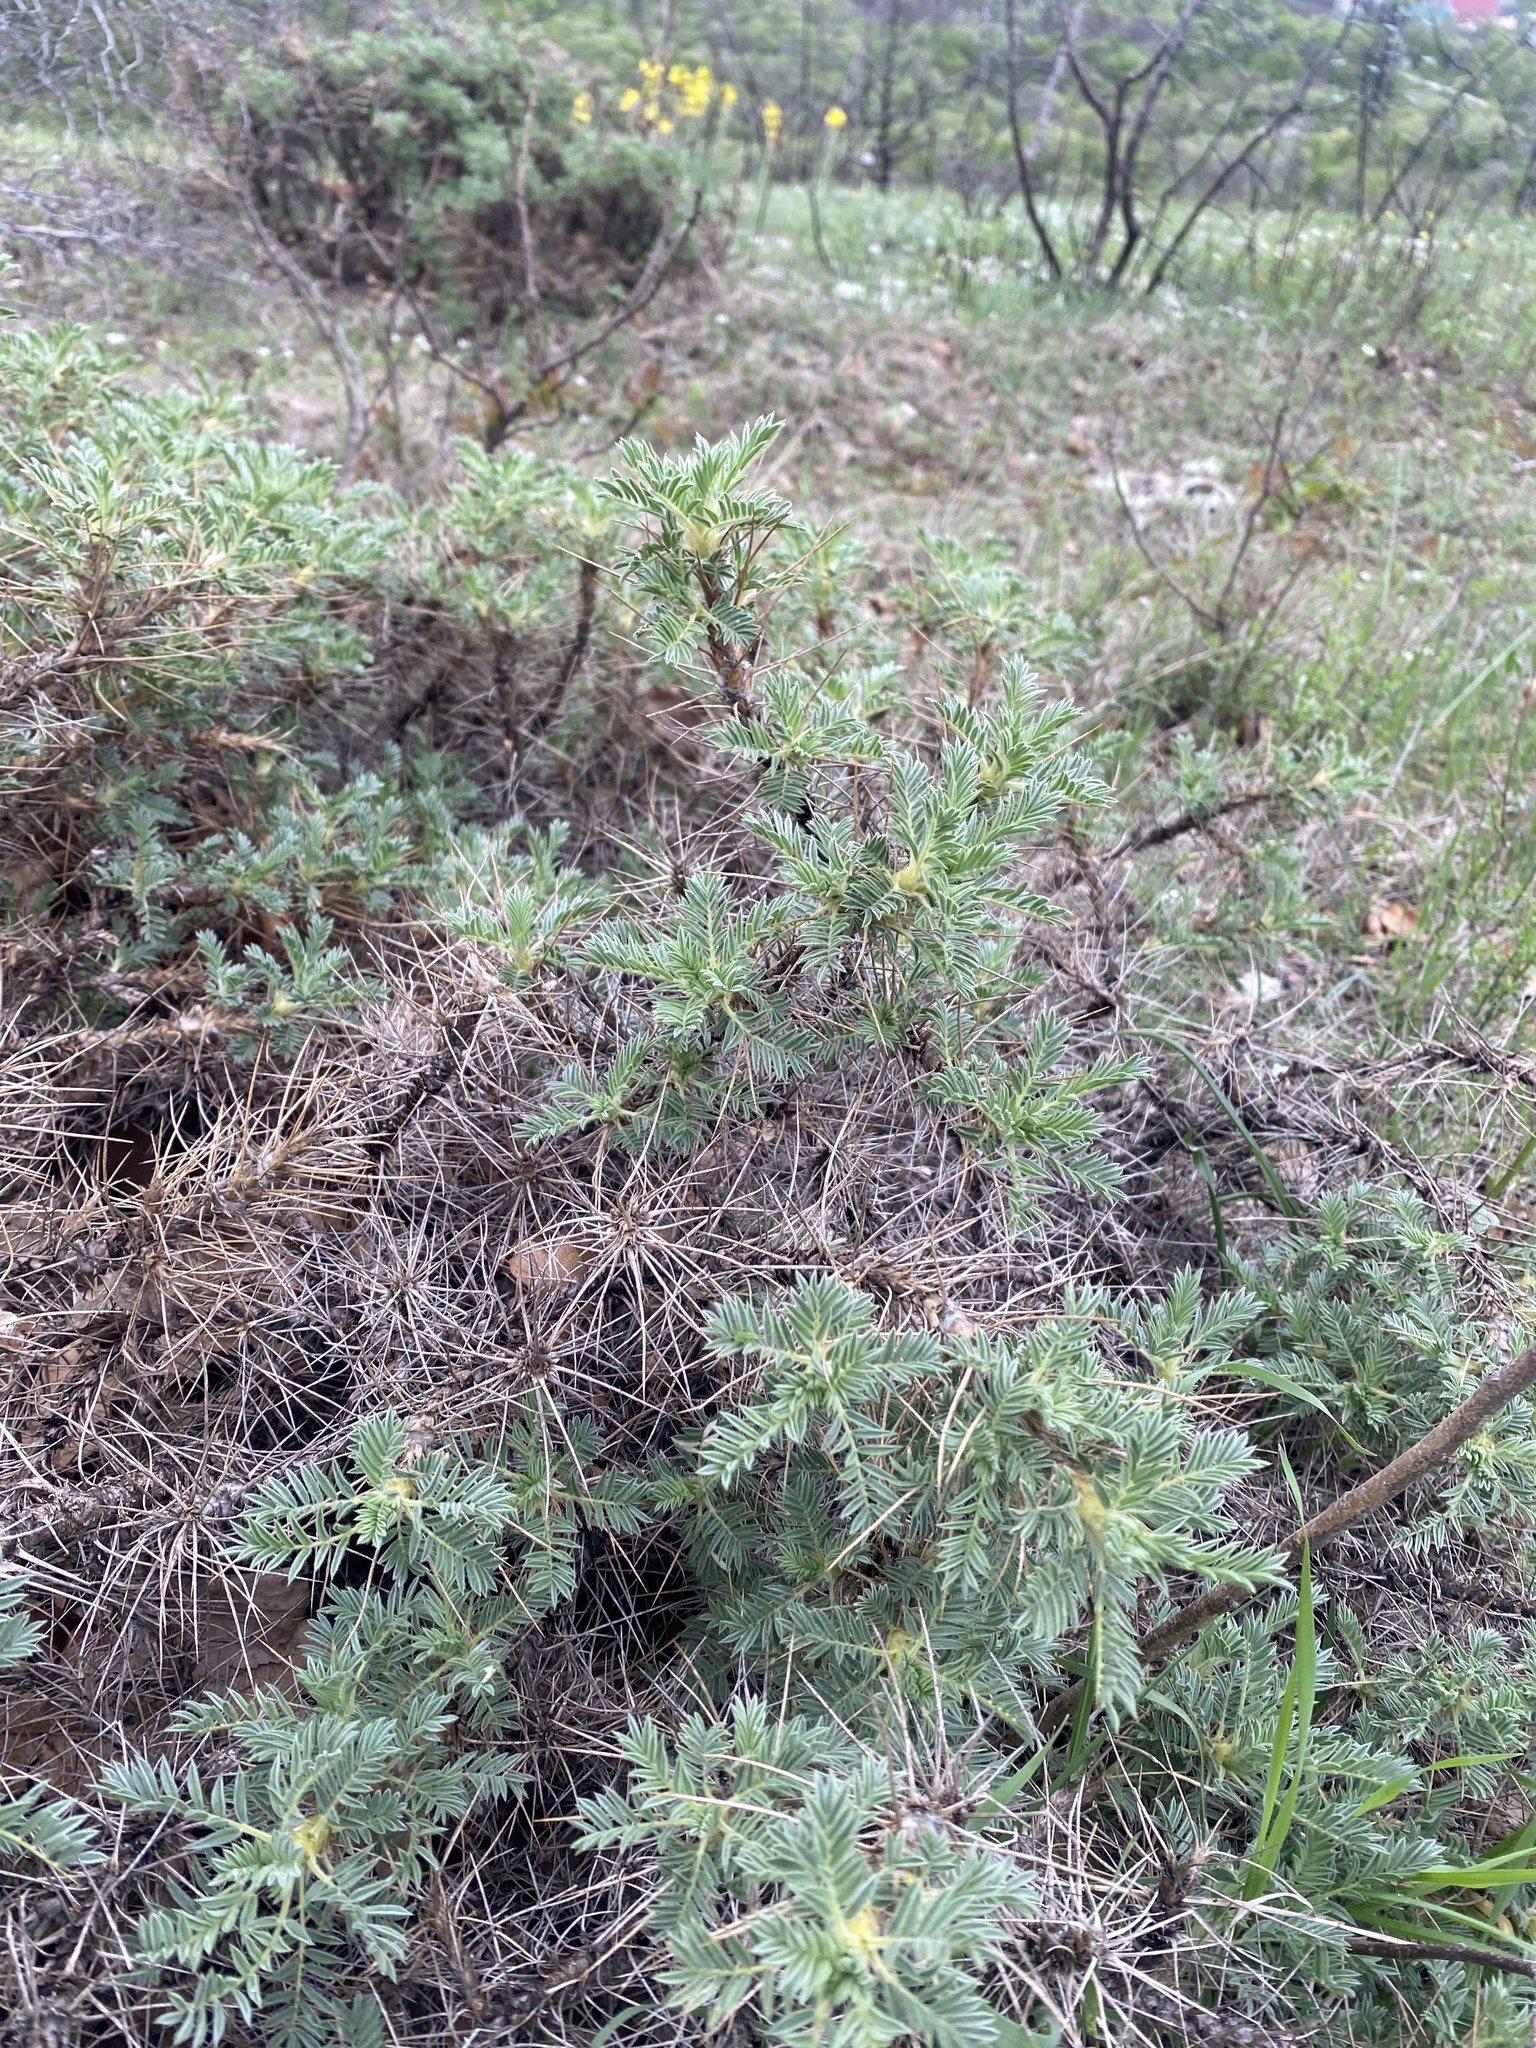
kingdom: Plantae
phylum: Tracheophyta
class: Magnoliopsida
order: Fabales
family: Fabaceae
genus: Astragalus
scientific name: Astragalus arnacanthoides
